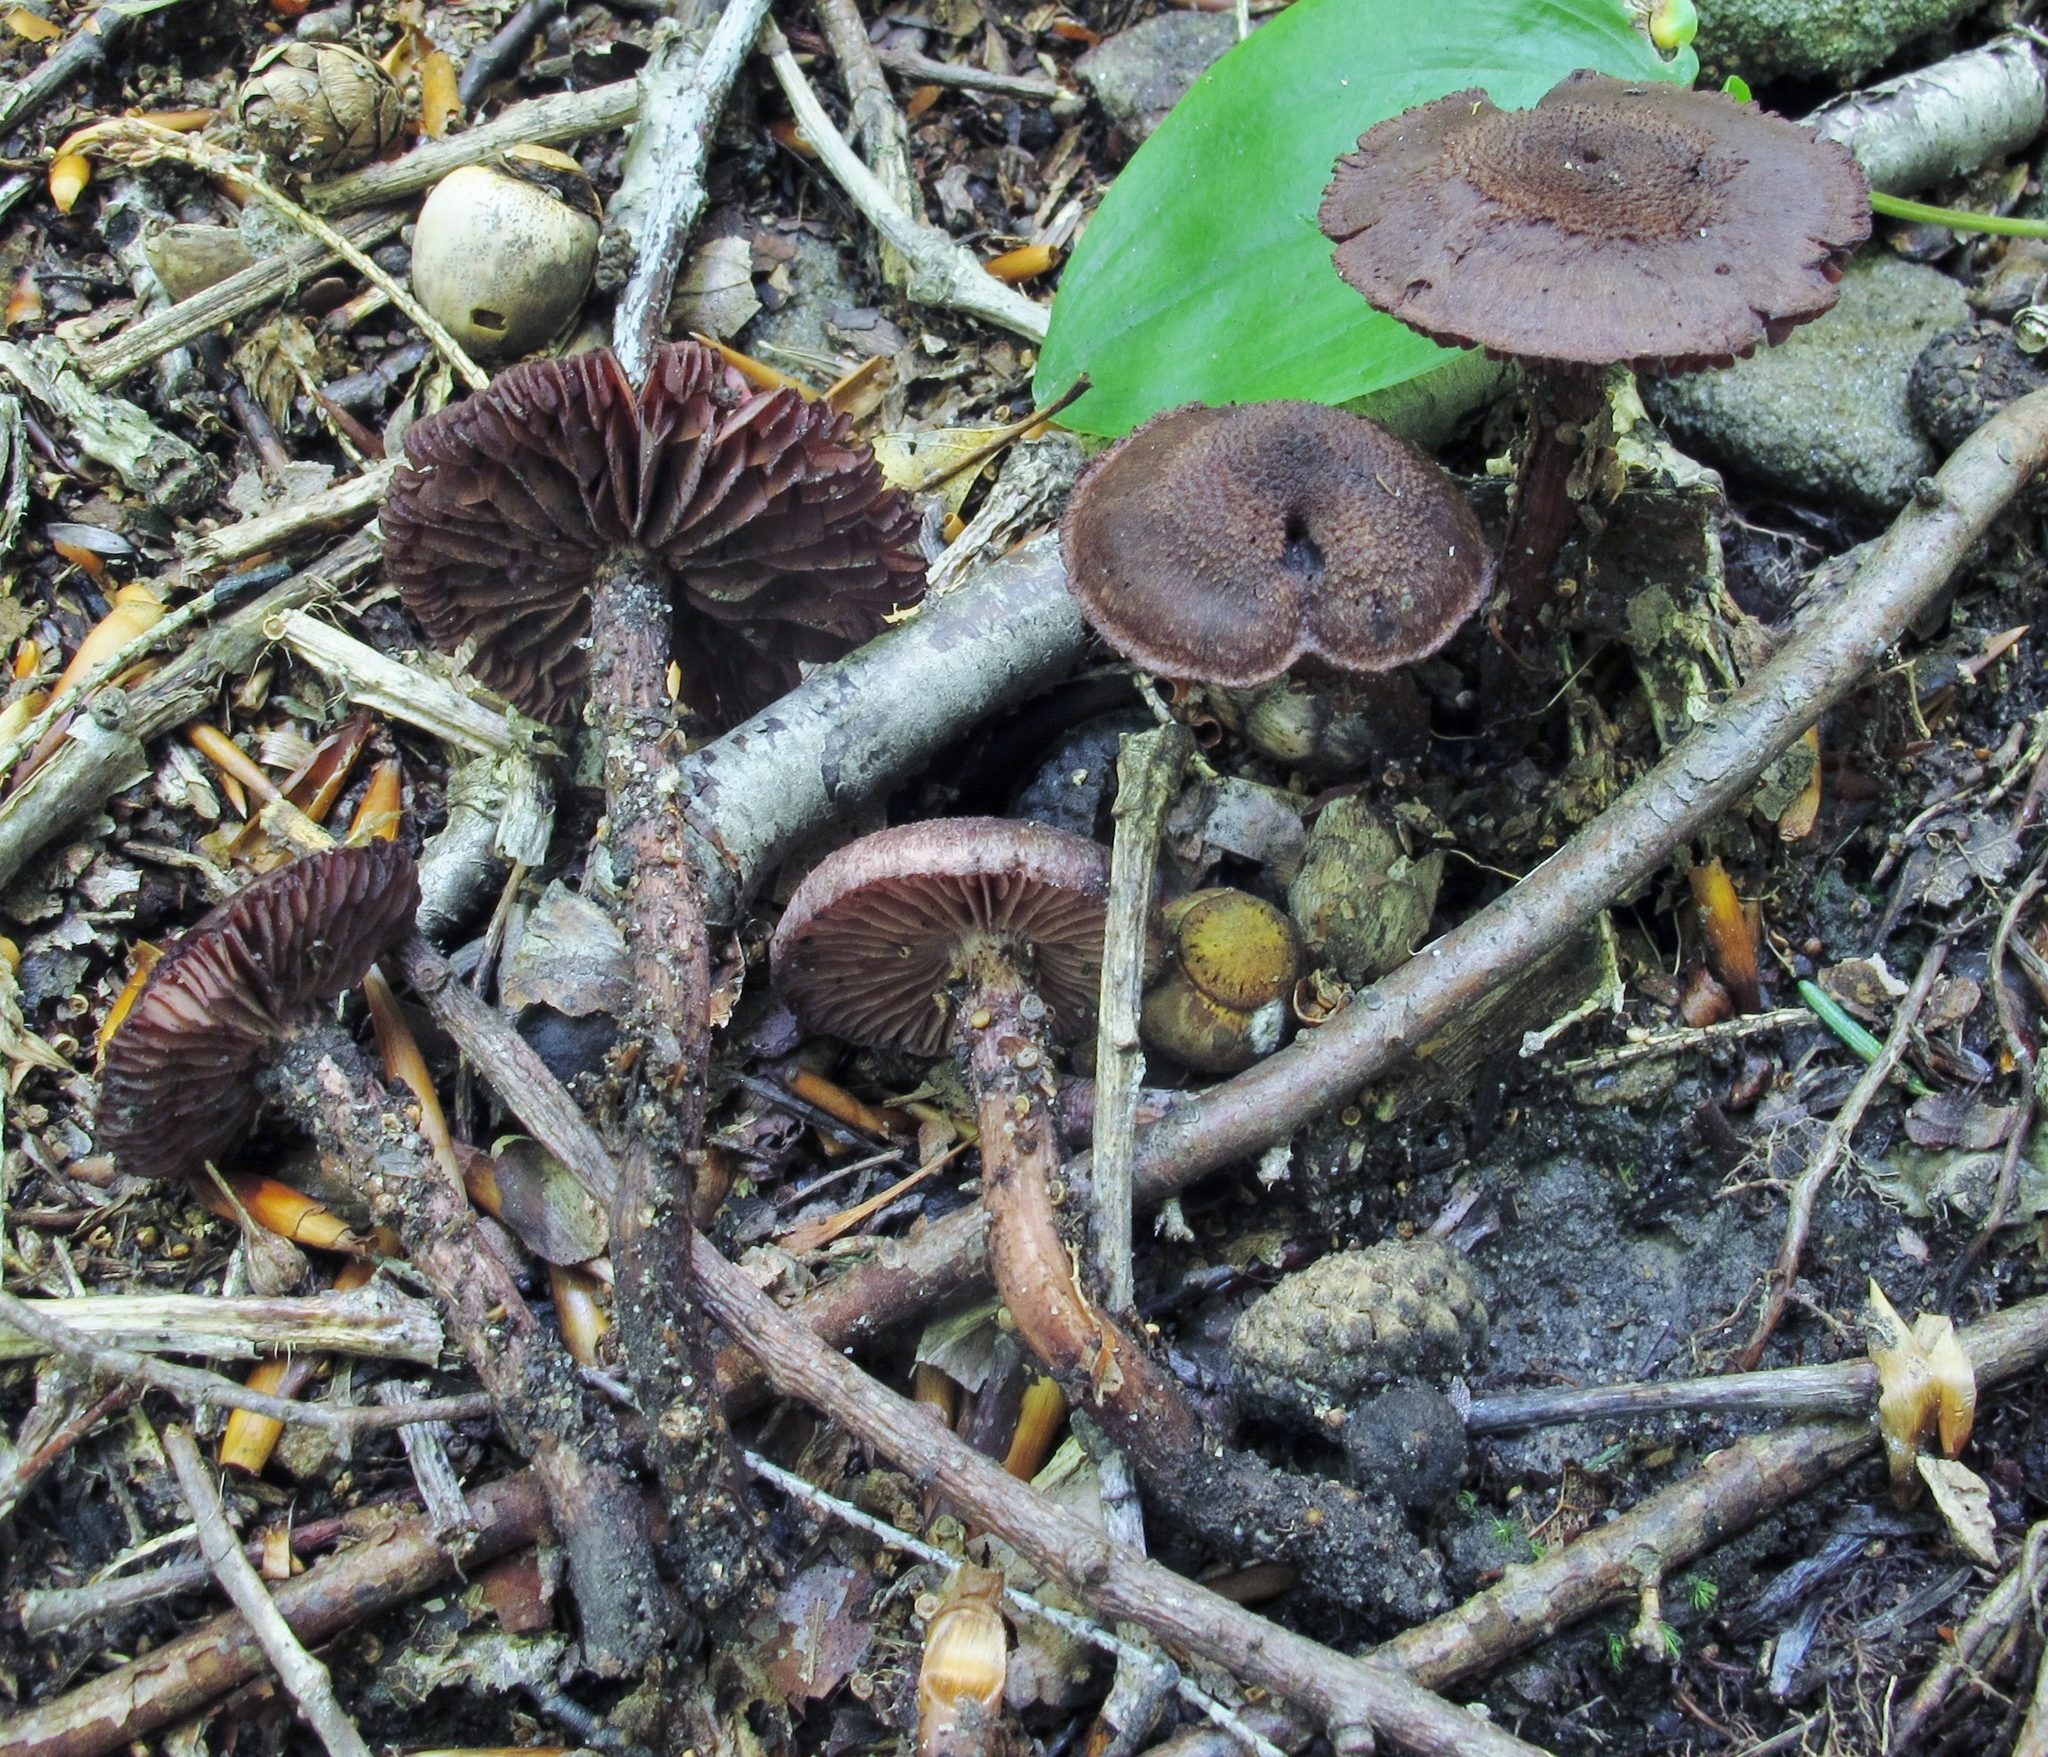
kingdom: Fungi
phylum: Basidiomycota
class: Agaricomycetes
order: Agaricales
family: Inocybaceae
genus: Inocybe
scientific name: Inocybe tahquamenonensis
